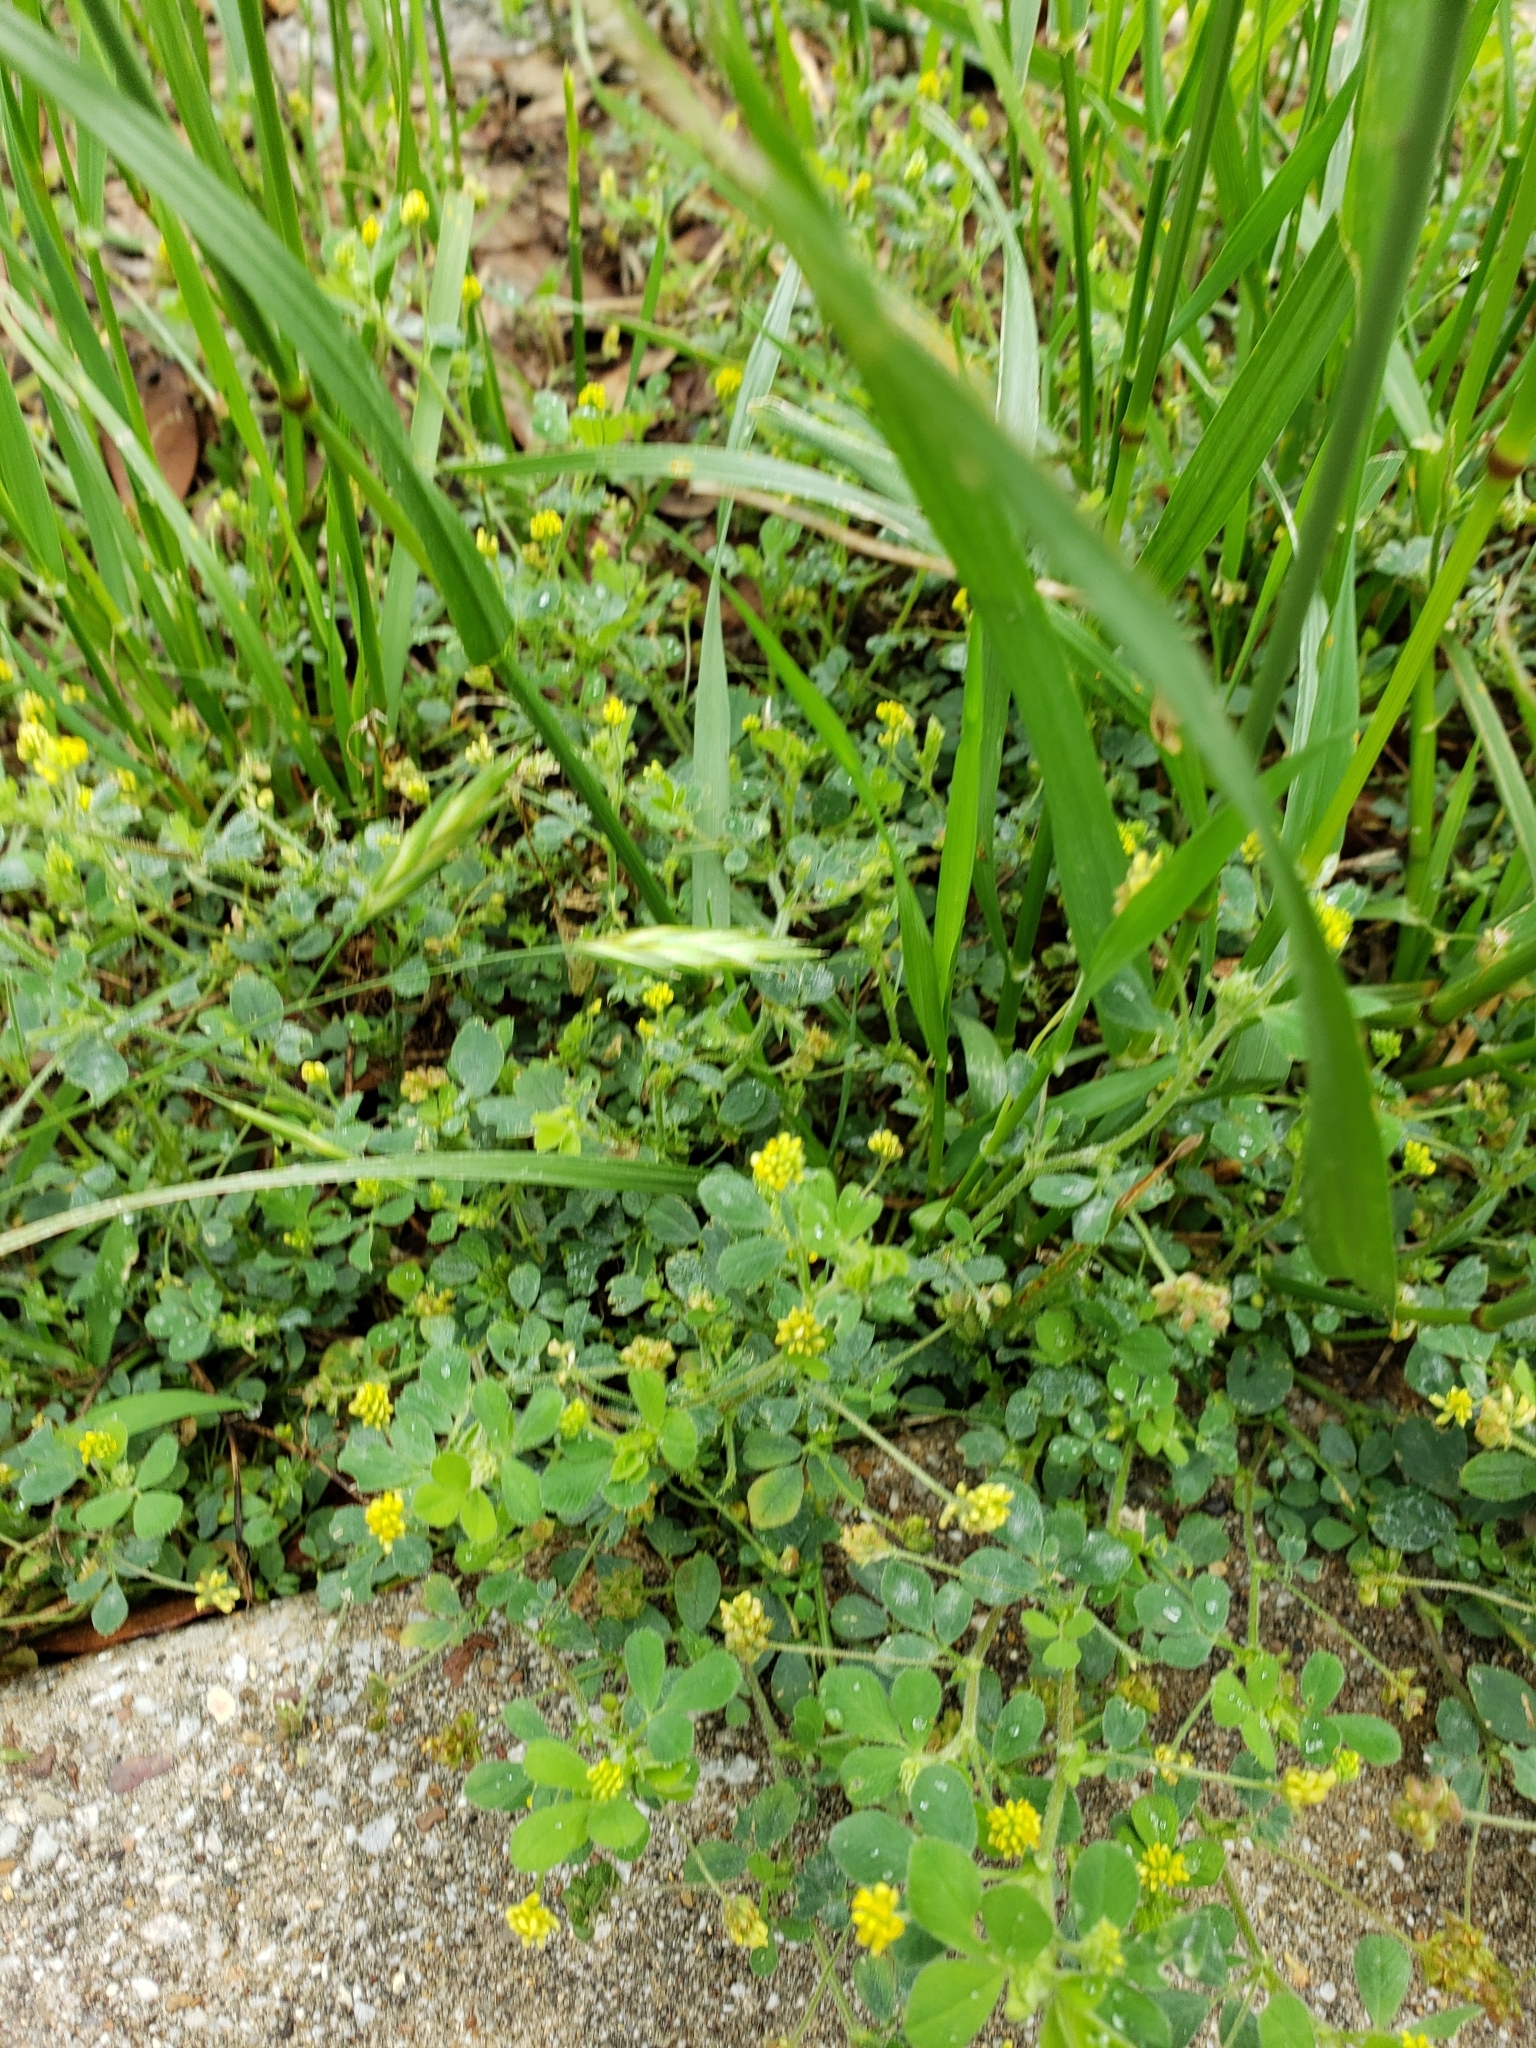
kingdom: Plantae
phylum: Tracheophyta
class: Magnoliopsida
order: Fabales
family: Fabaceae
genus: Medicago
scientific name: Medicago lupulina
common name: Black medick
